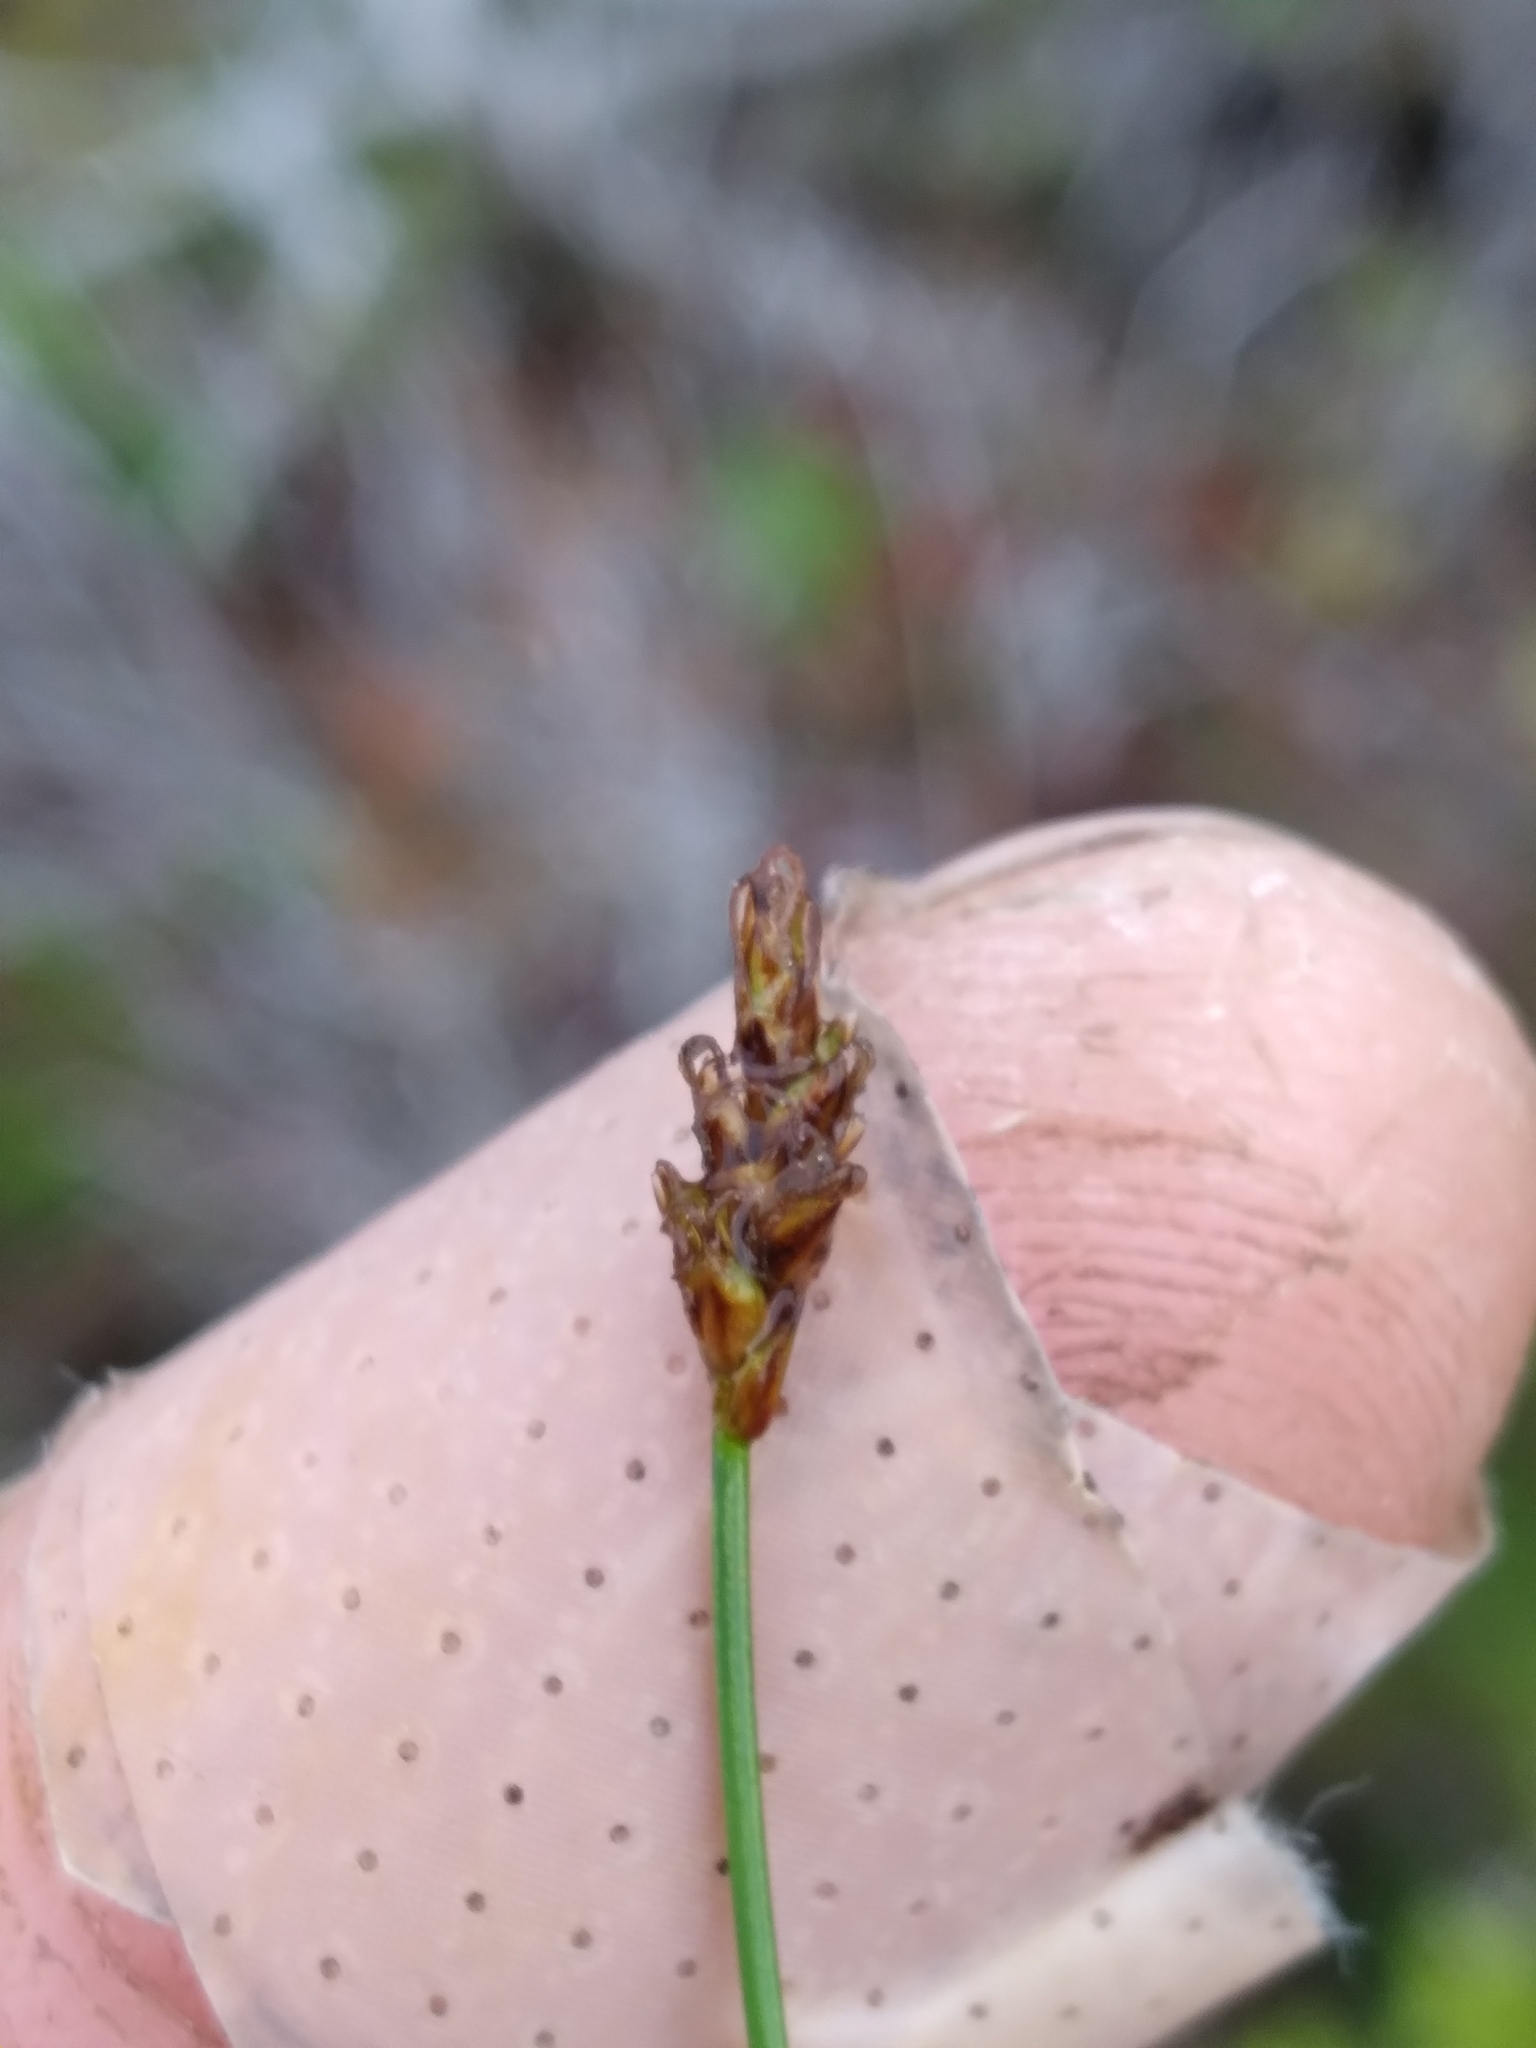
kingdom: Plantae
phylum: Tracheophyta
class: Liliopsida
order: Poales
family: Cyperaceae
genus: Carex
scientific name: Carex alascana
